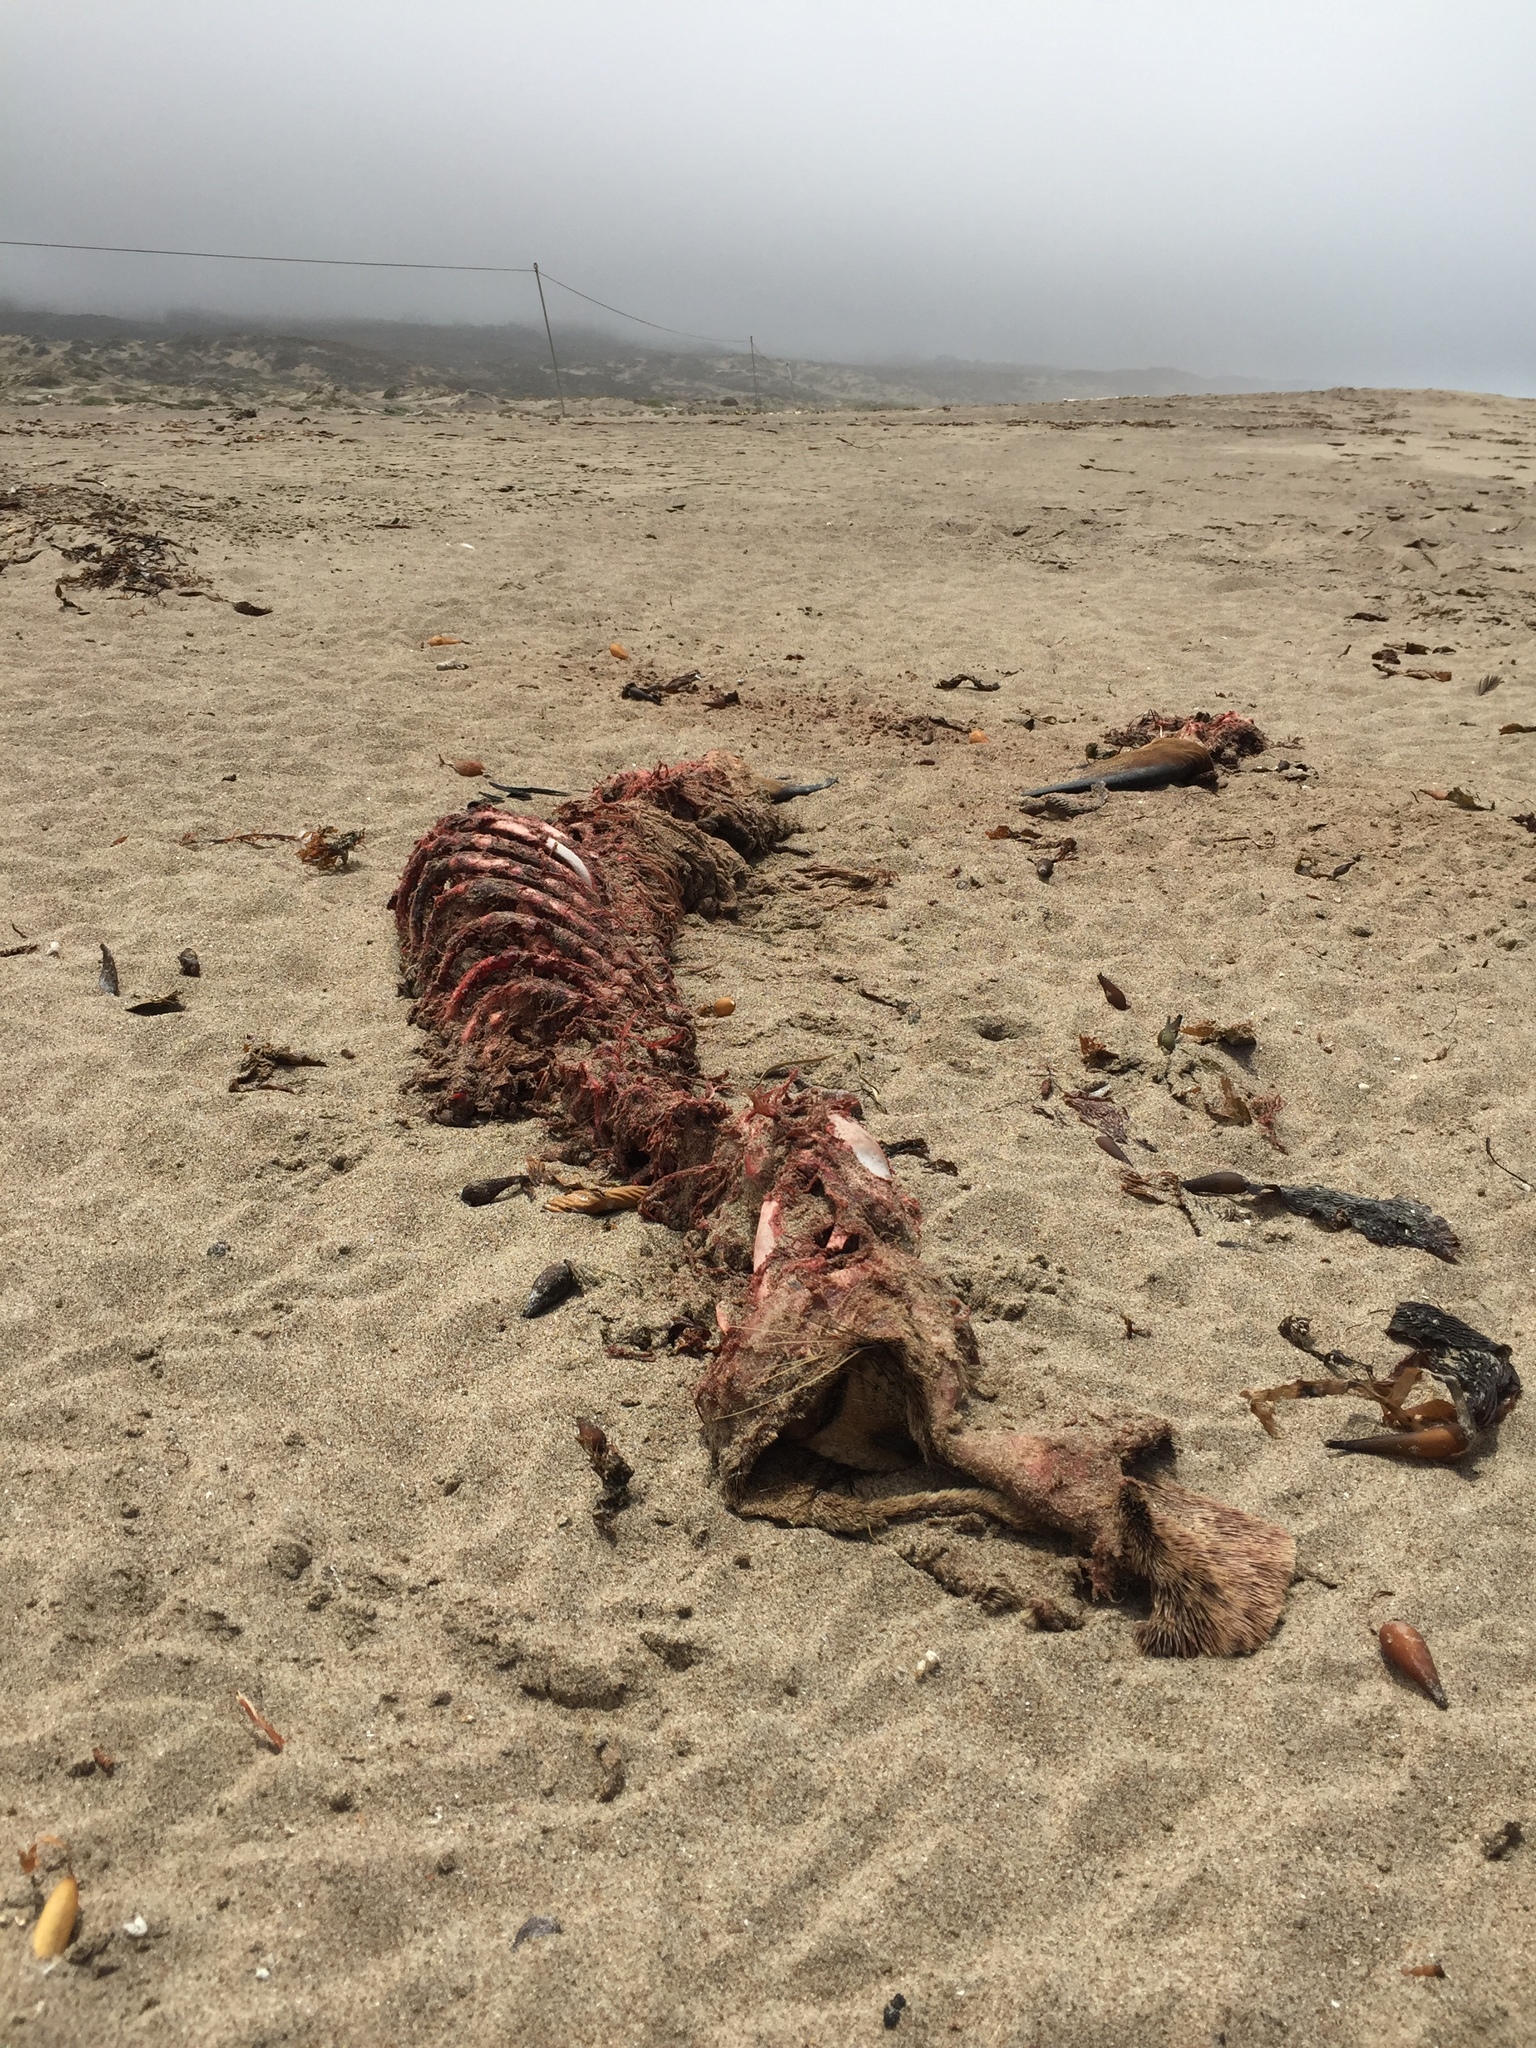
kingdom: Animalia
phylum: Chordata
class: Mammalia
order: Carnivora
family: Otariidae
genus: Zalophus
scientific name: Zalophus californianus
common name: California sea lion
